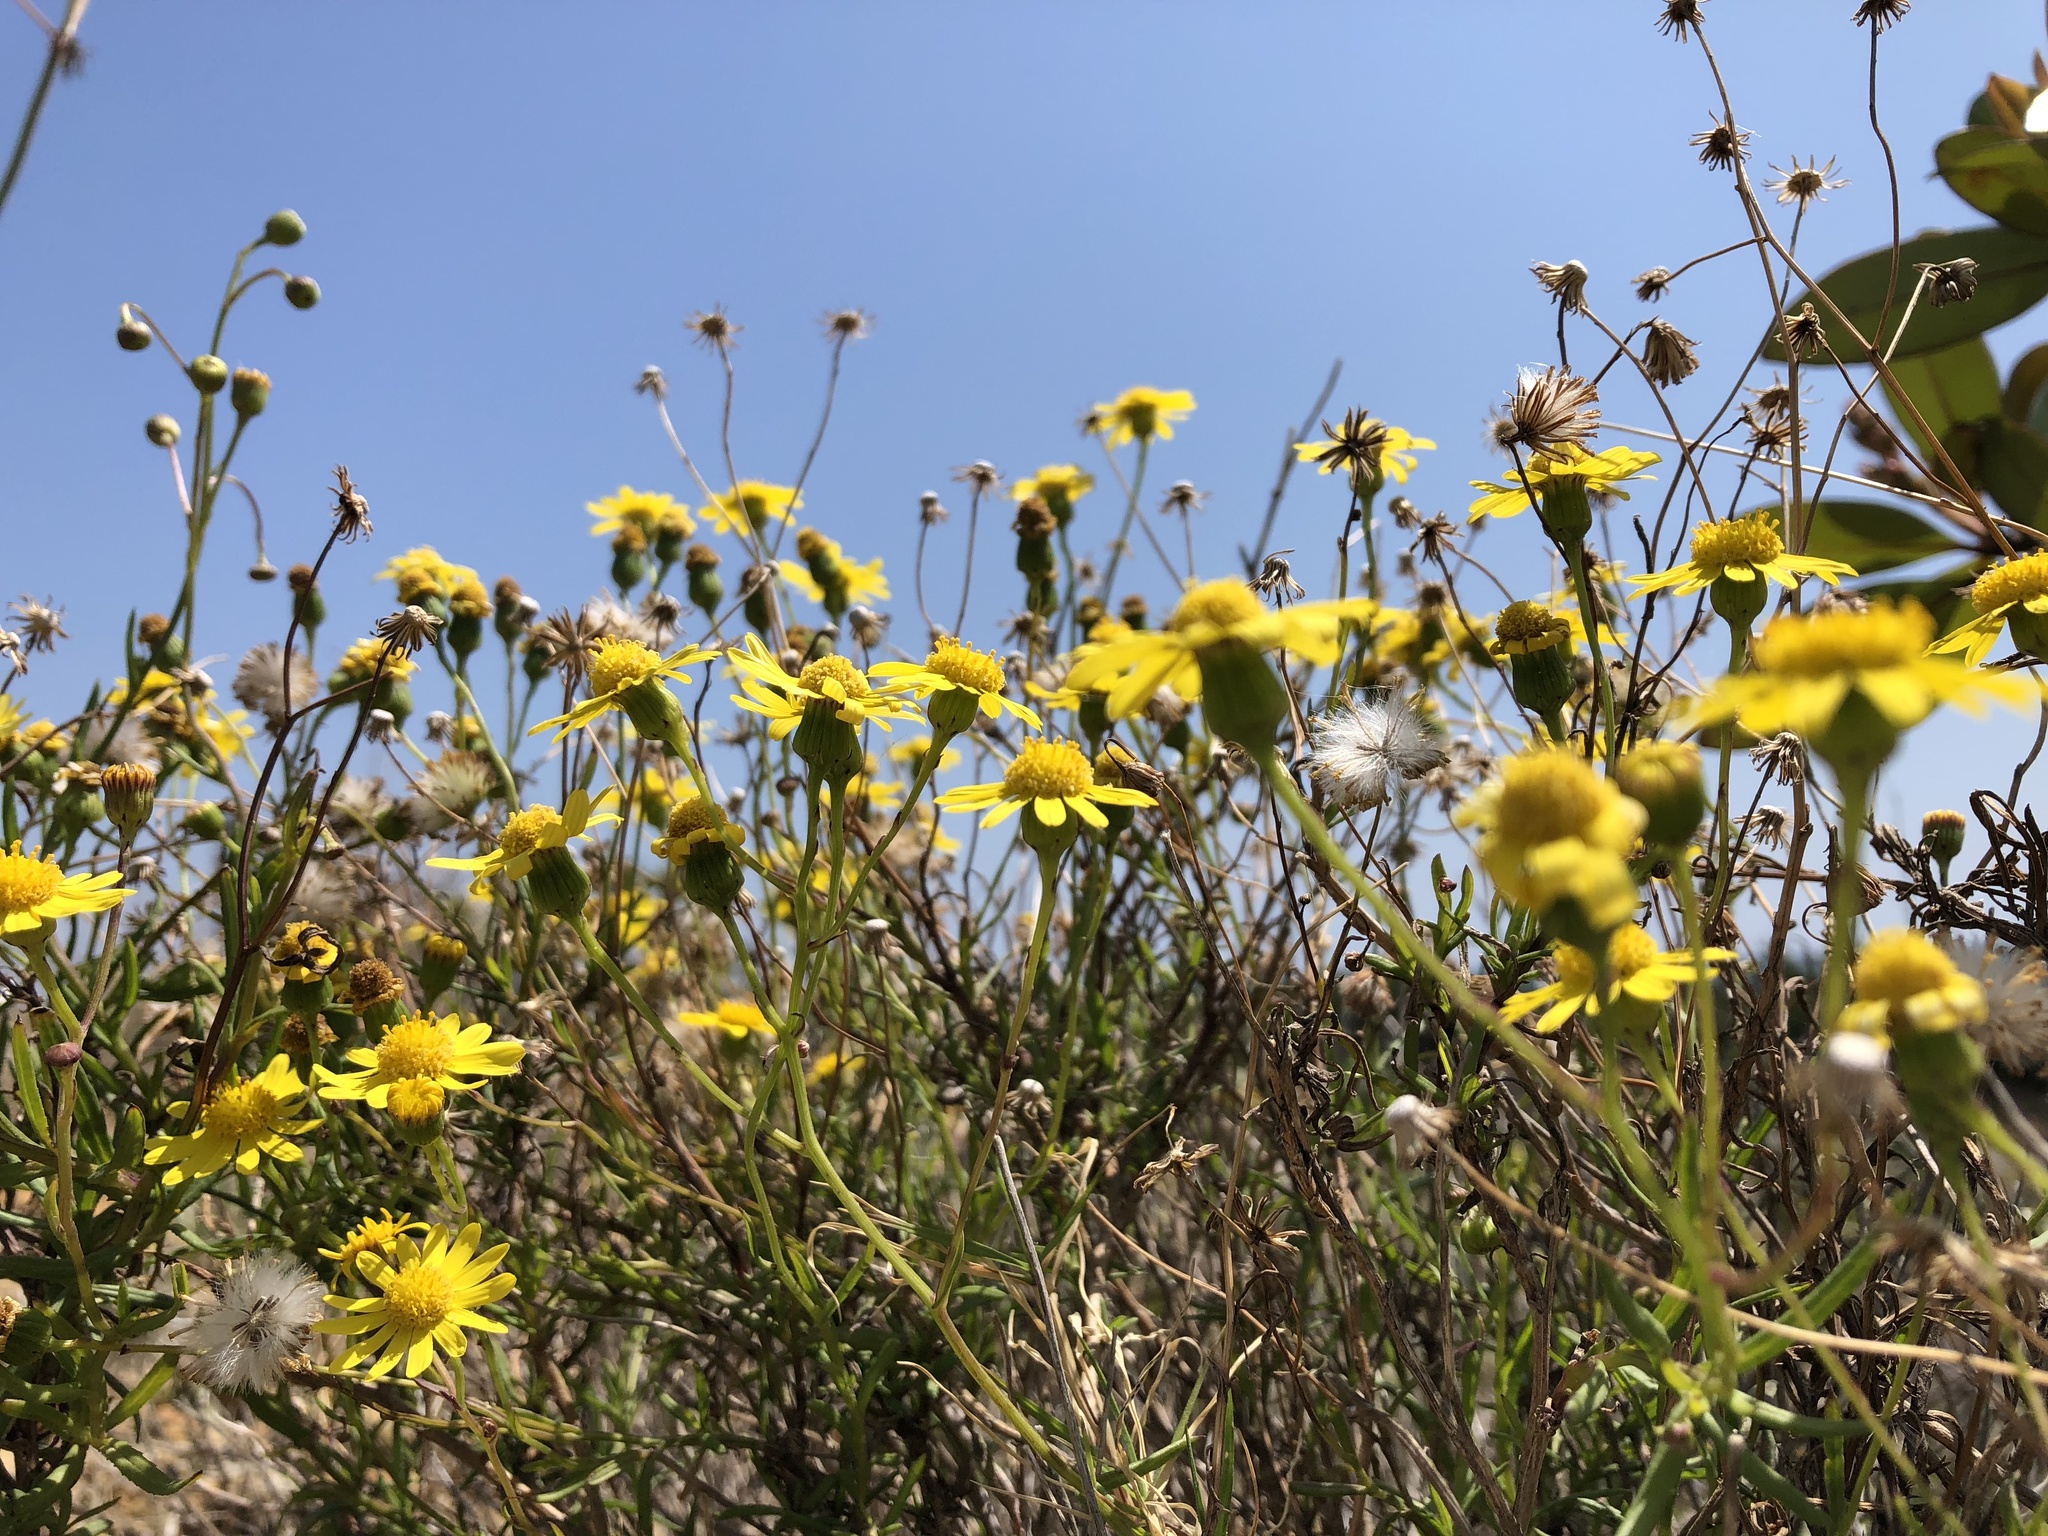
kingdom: Plantae
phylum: Tracheophyta
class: Magnoliopsida
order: Asterales
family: Asteraceae
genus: Senecio
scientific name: Senecio madagascariensis
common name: Madagascar ragwort
